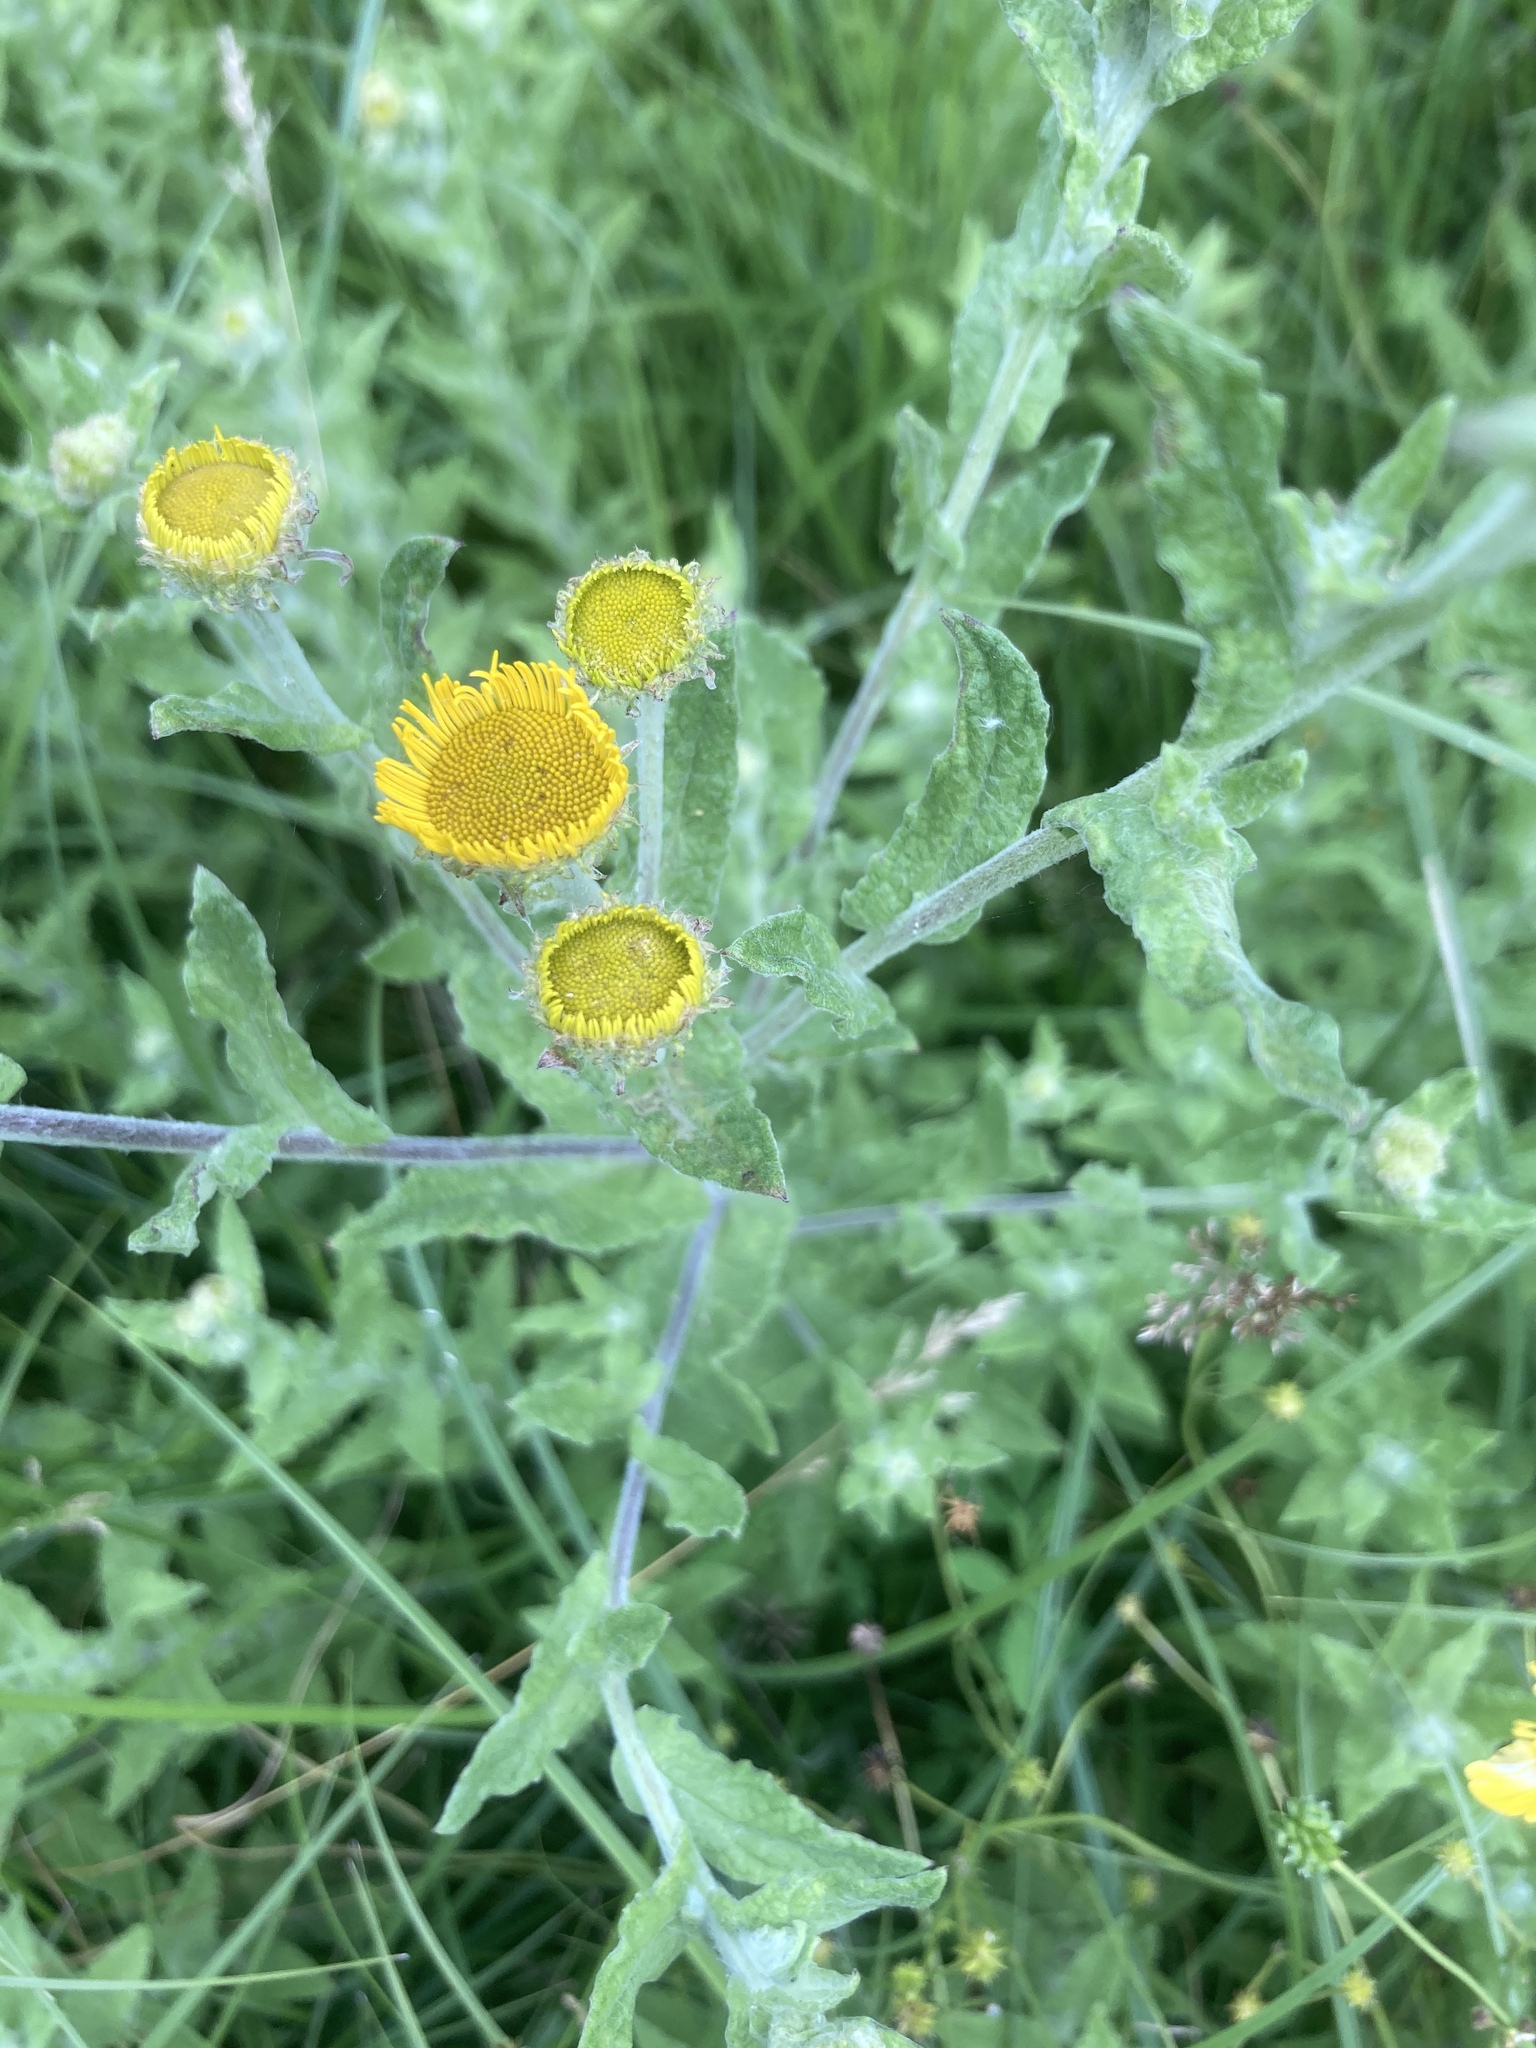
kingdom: Plantae
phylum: Tracheophyta
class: Magnoliopsida
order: Asterales
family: Asteraceae
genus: Pulicaria
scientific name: Pulicaria dysenterica
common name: Common fleabane
